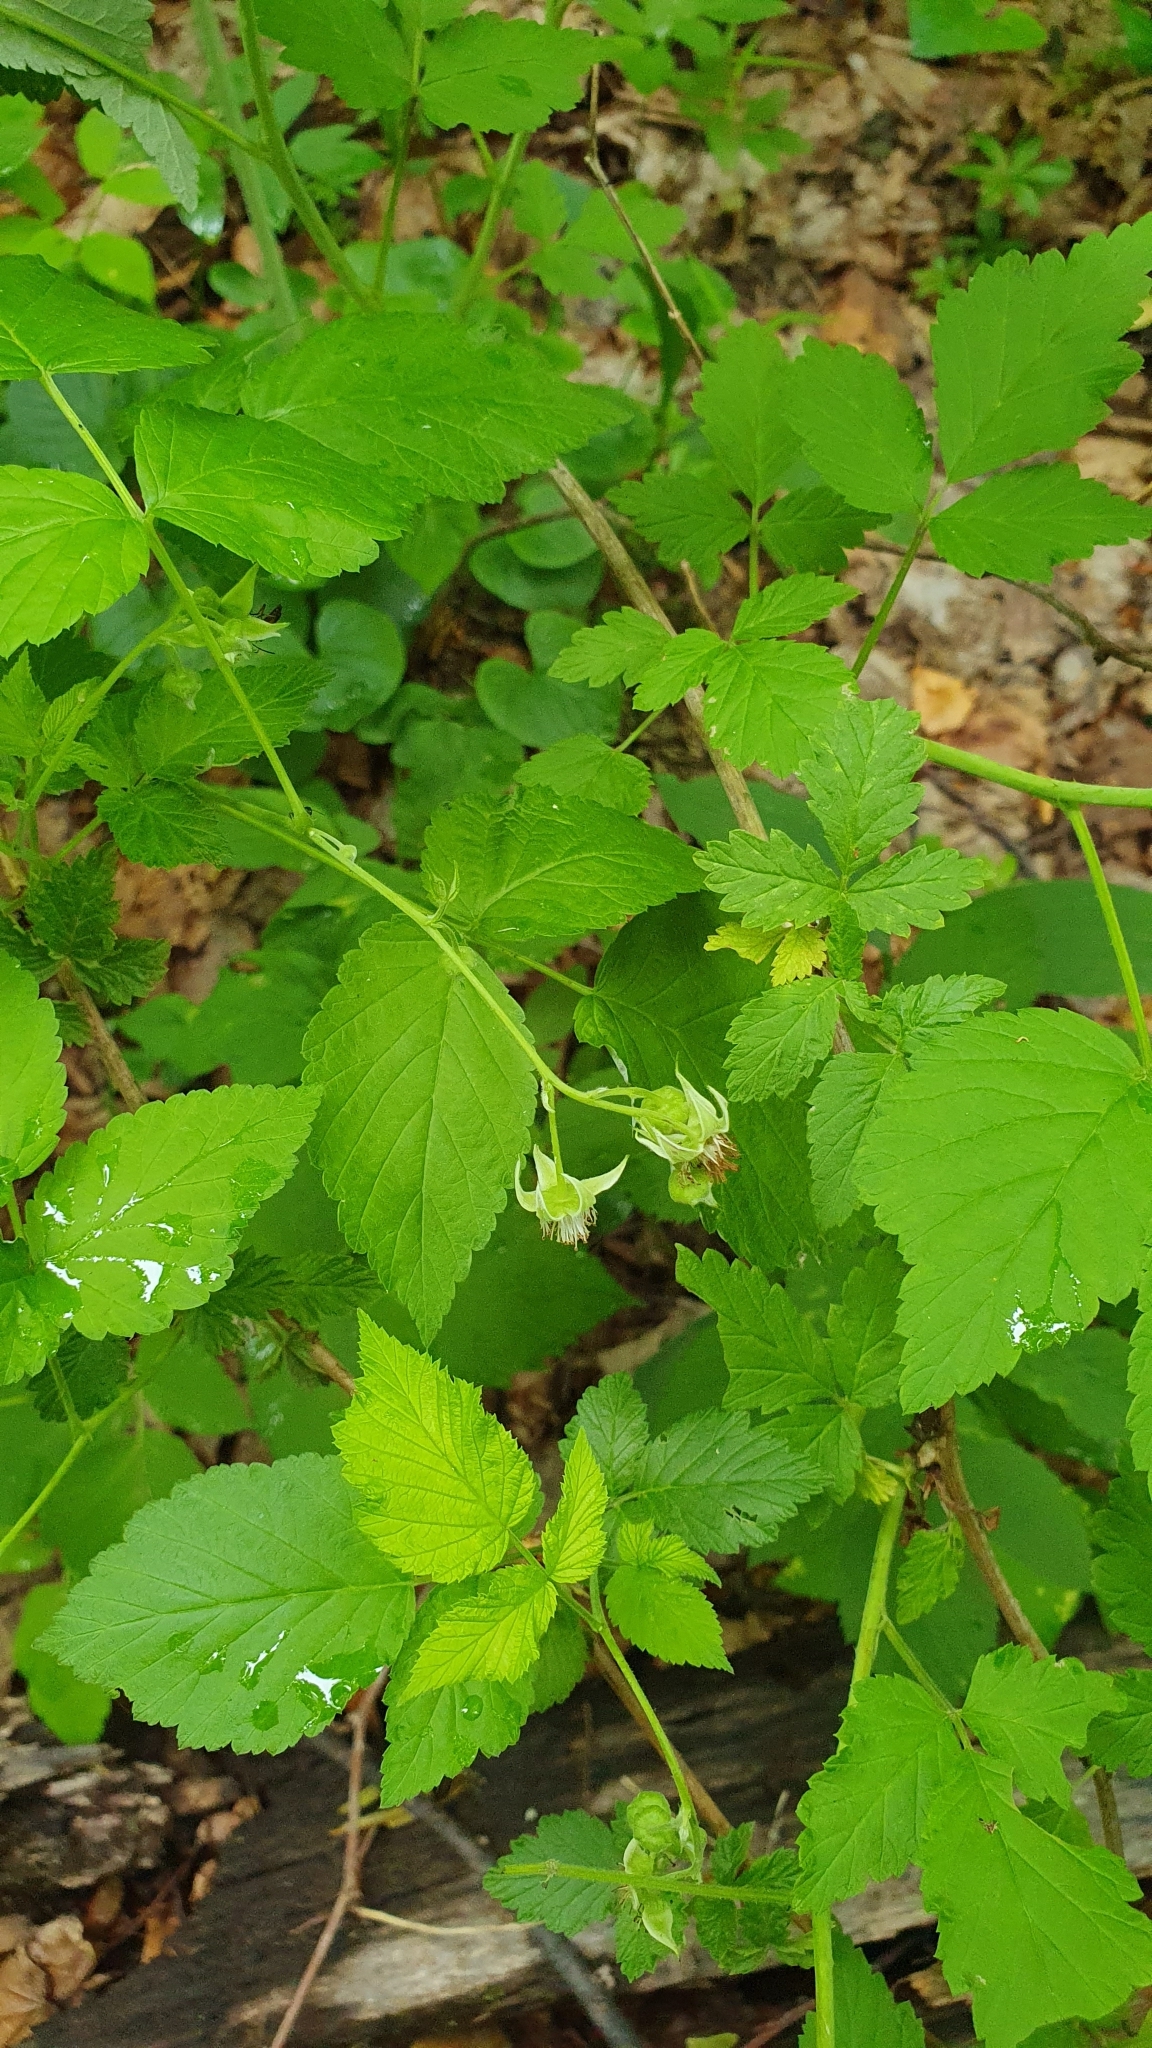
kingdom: Plantae
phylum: Tracheophyta
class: Magnoliopsida
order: Rosales
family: Rosaceae
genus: Rubus
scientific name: Rubus idaeus
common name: Raspberry
